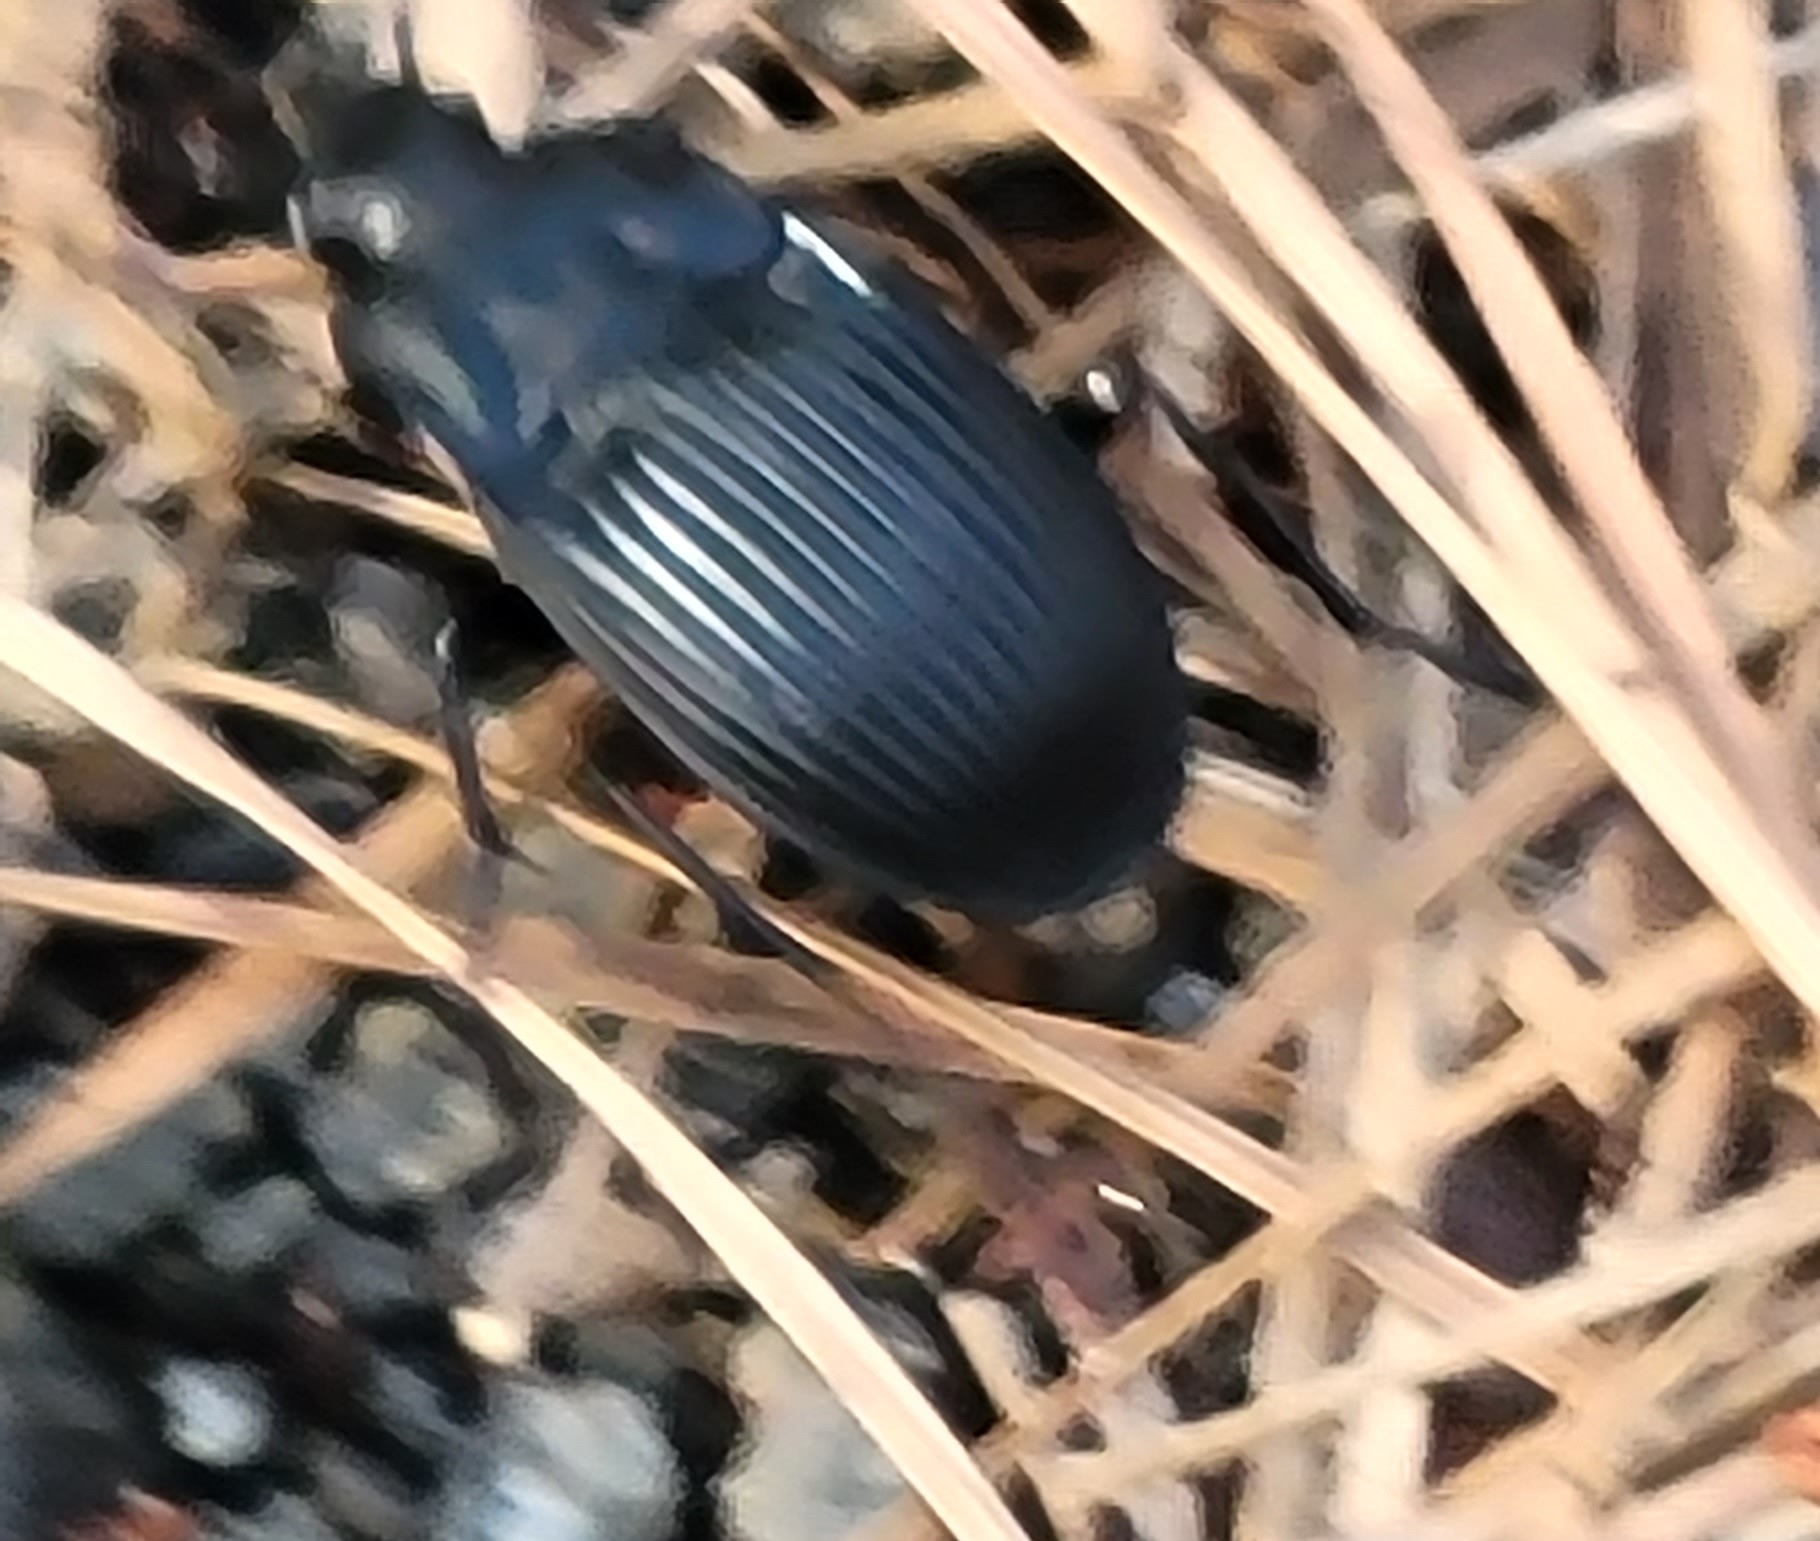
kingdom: Animalia
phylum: Arthropoda
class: Insecta
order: Coleoptera
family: Carabidae
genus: Dicaelus
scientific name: Dicaelus dilatatus
